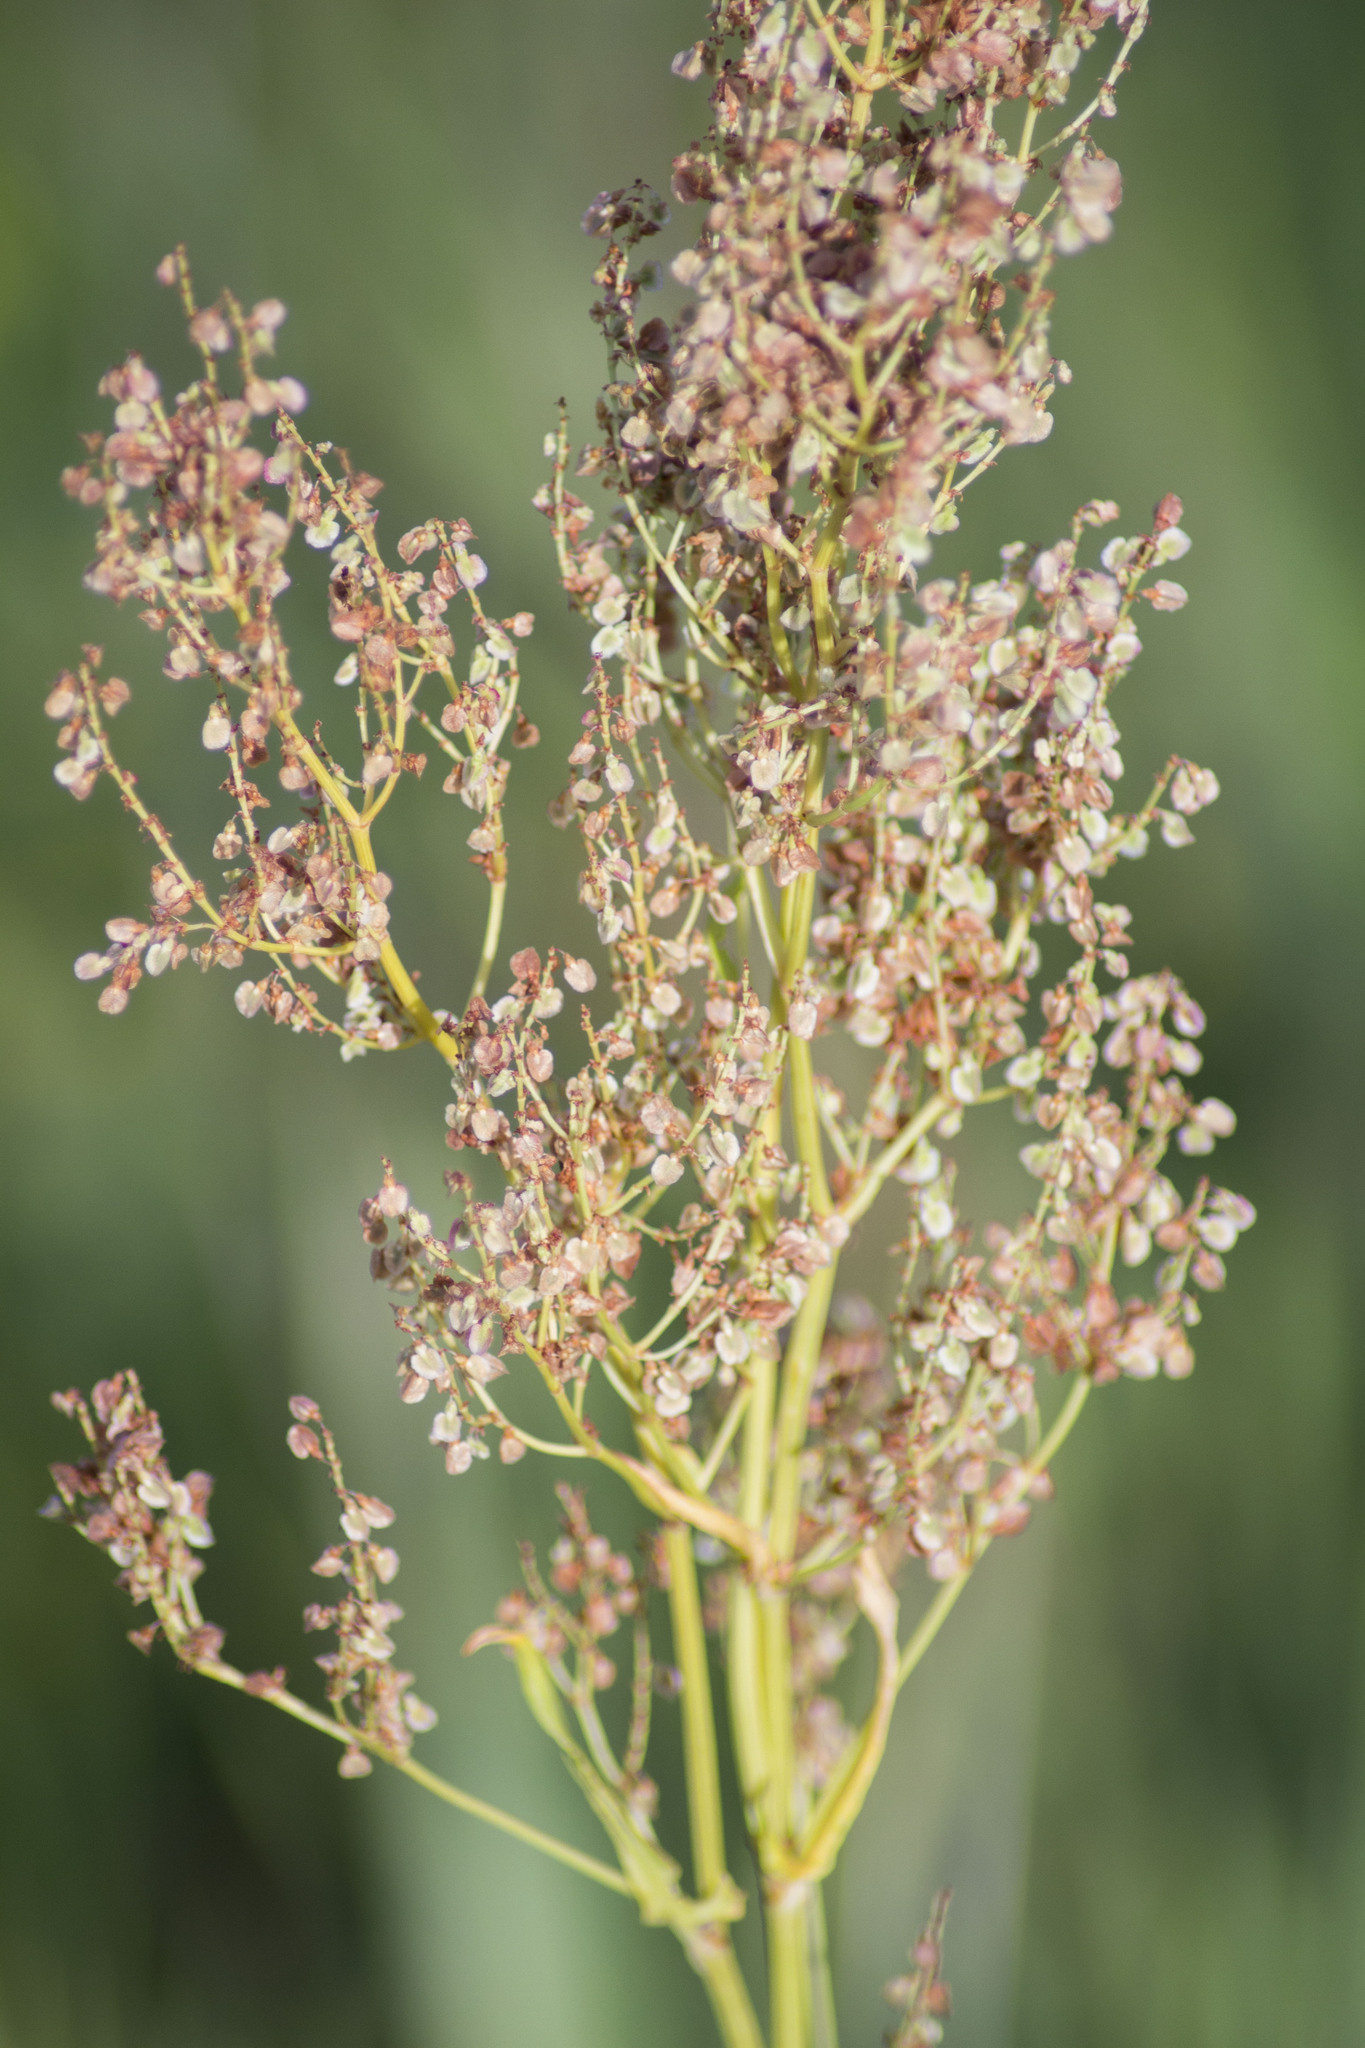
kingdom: Plantae
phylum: Tracheophyta
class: Magnoliopsida
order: Caryophyllales
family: Polygonaceae
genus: Rumex
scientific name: Rumex thyrsiflorus
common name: Garden sorrel
